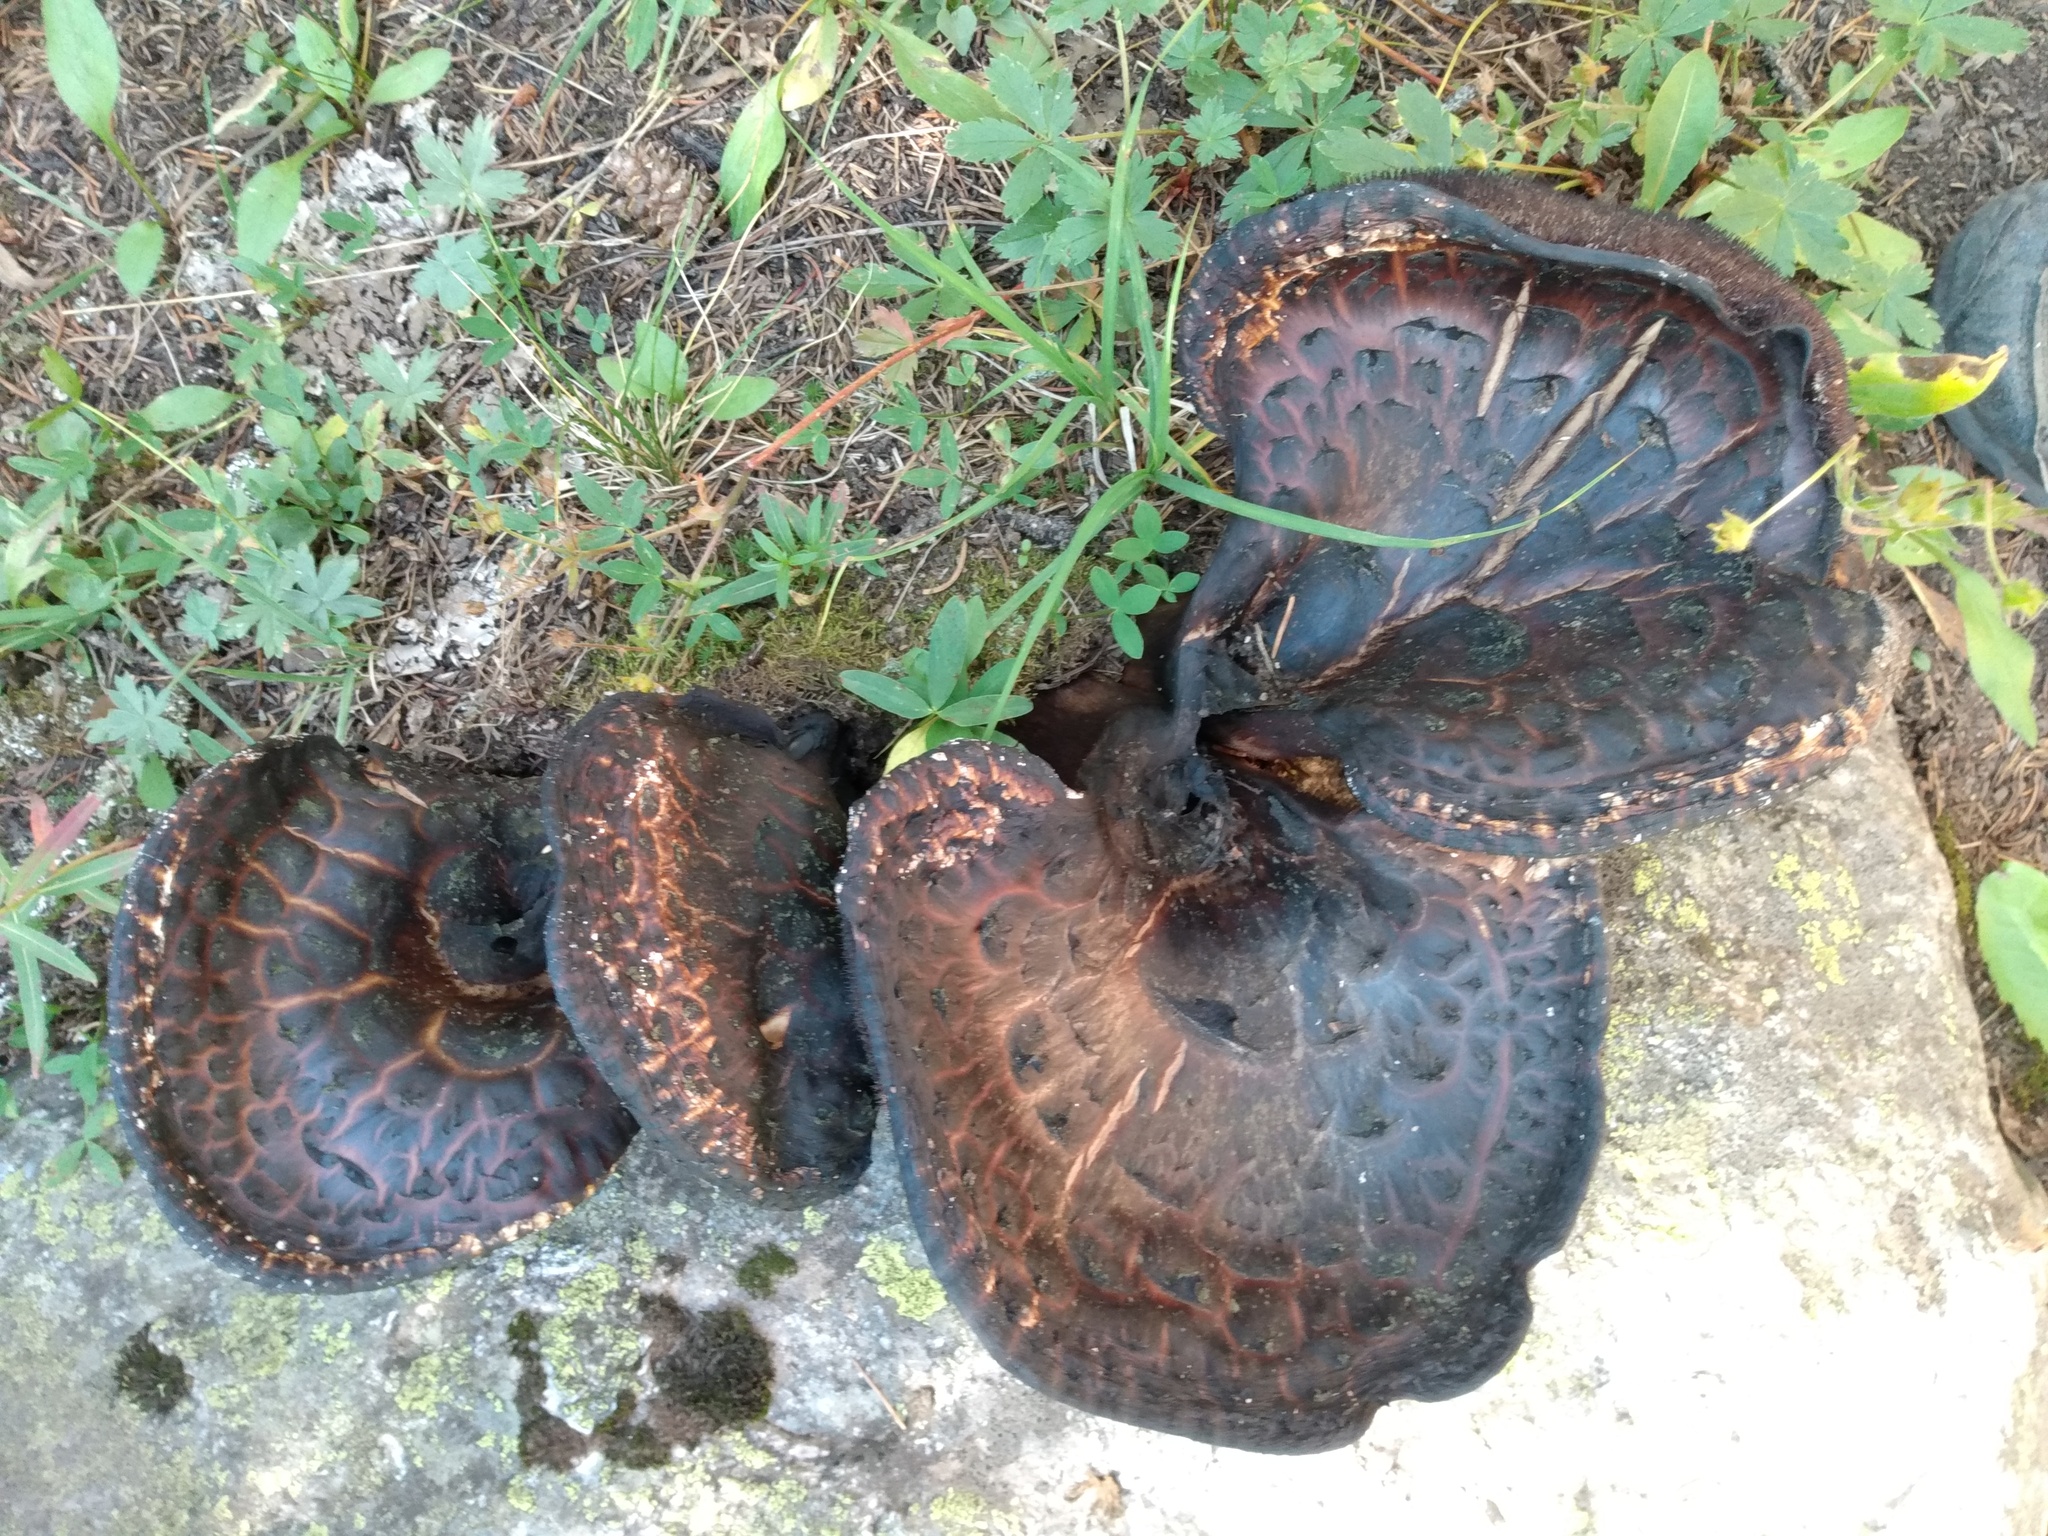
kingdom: Fungi
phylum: Basidiomycota
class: Agaricomycetes
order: Thelephorales
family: Bankeraceae
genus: Sarcodon
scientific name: Sarcodon imbricatus
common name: Shingled hedgehog
